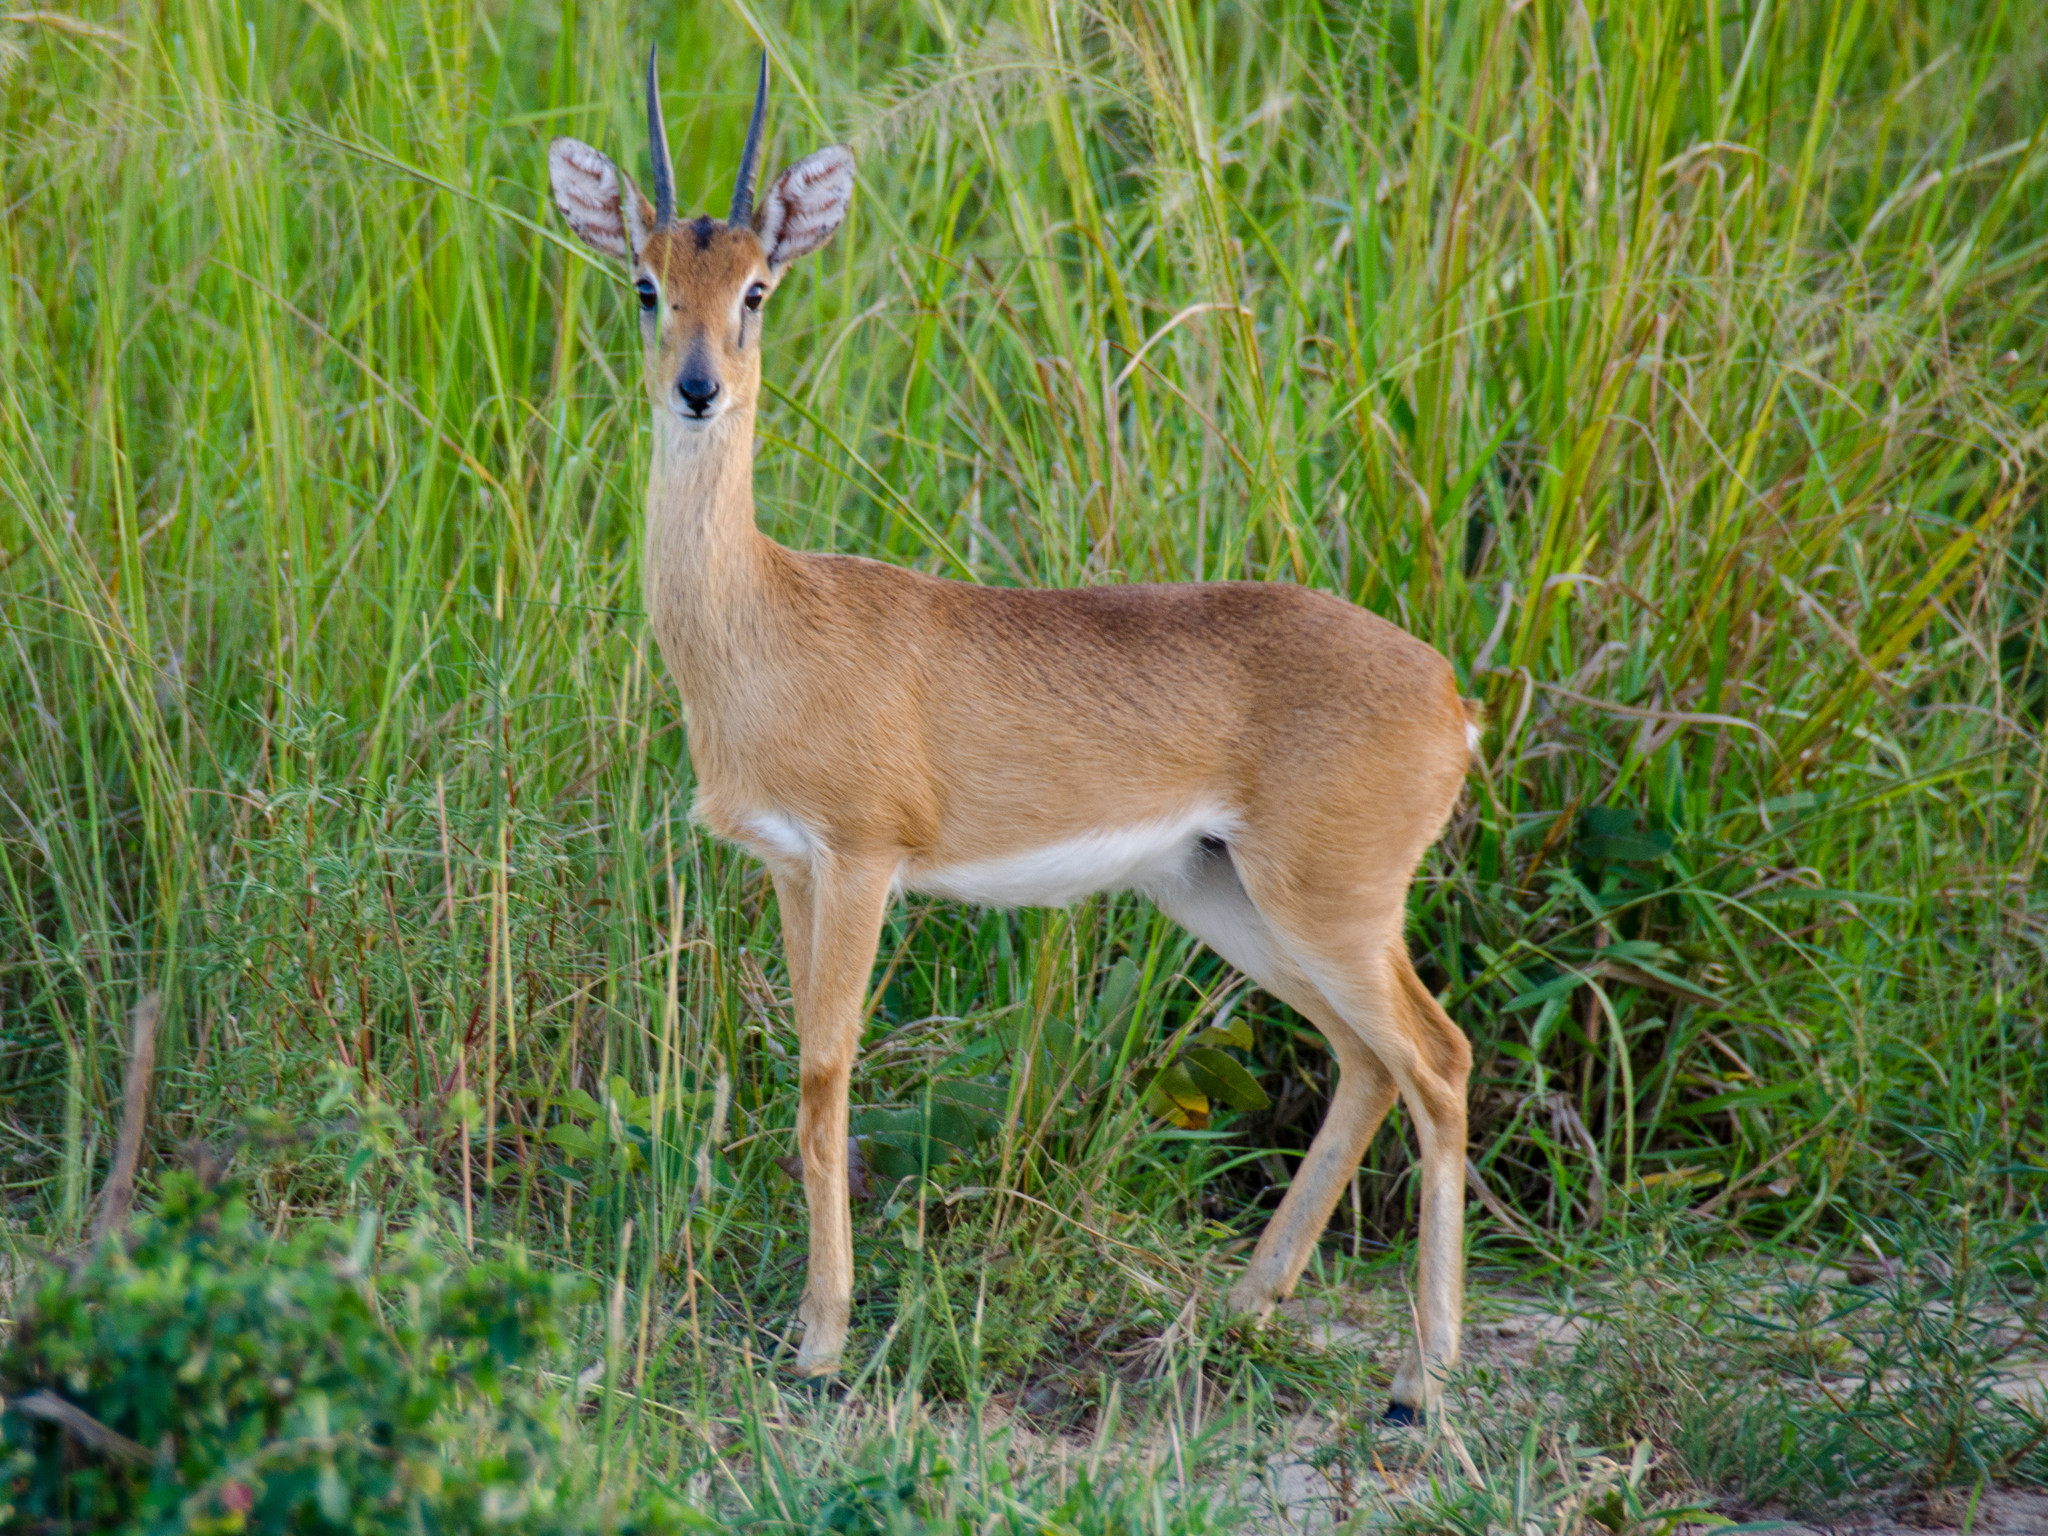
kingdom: Animalia
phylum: Chordata
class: Mammalia
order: Artiodactyla
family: Bovidae
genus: Ourebia
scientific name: Ourebia ourebi
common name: Oribi
